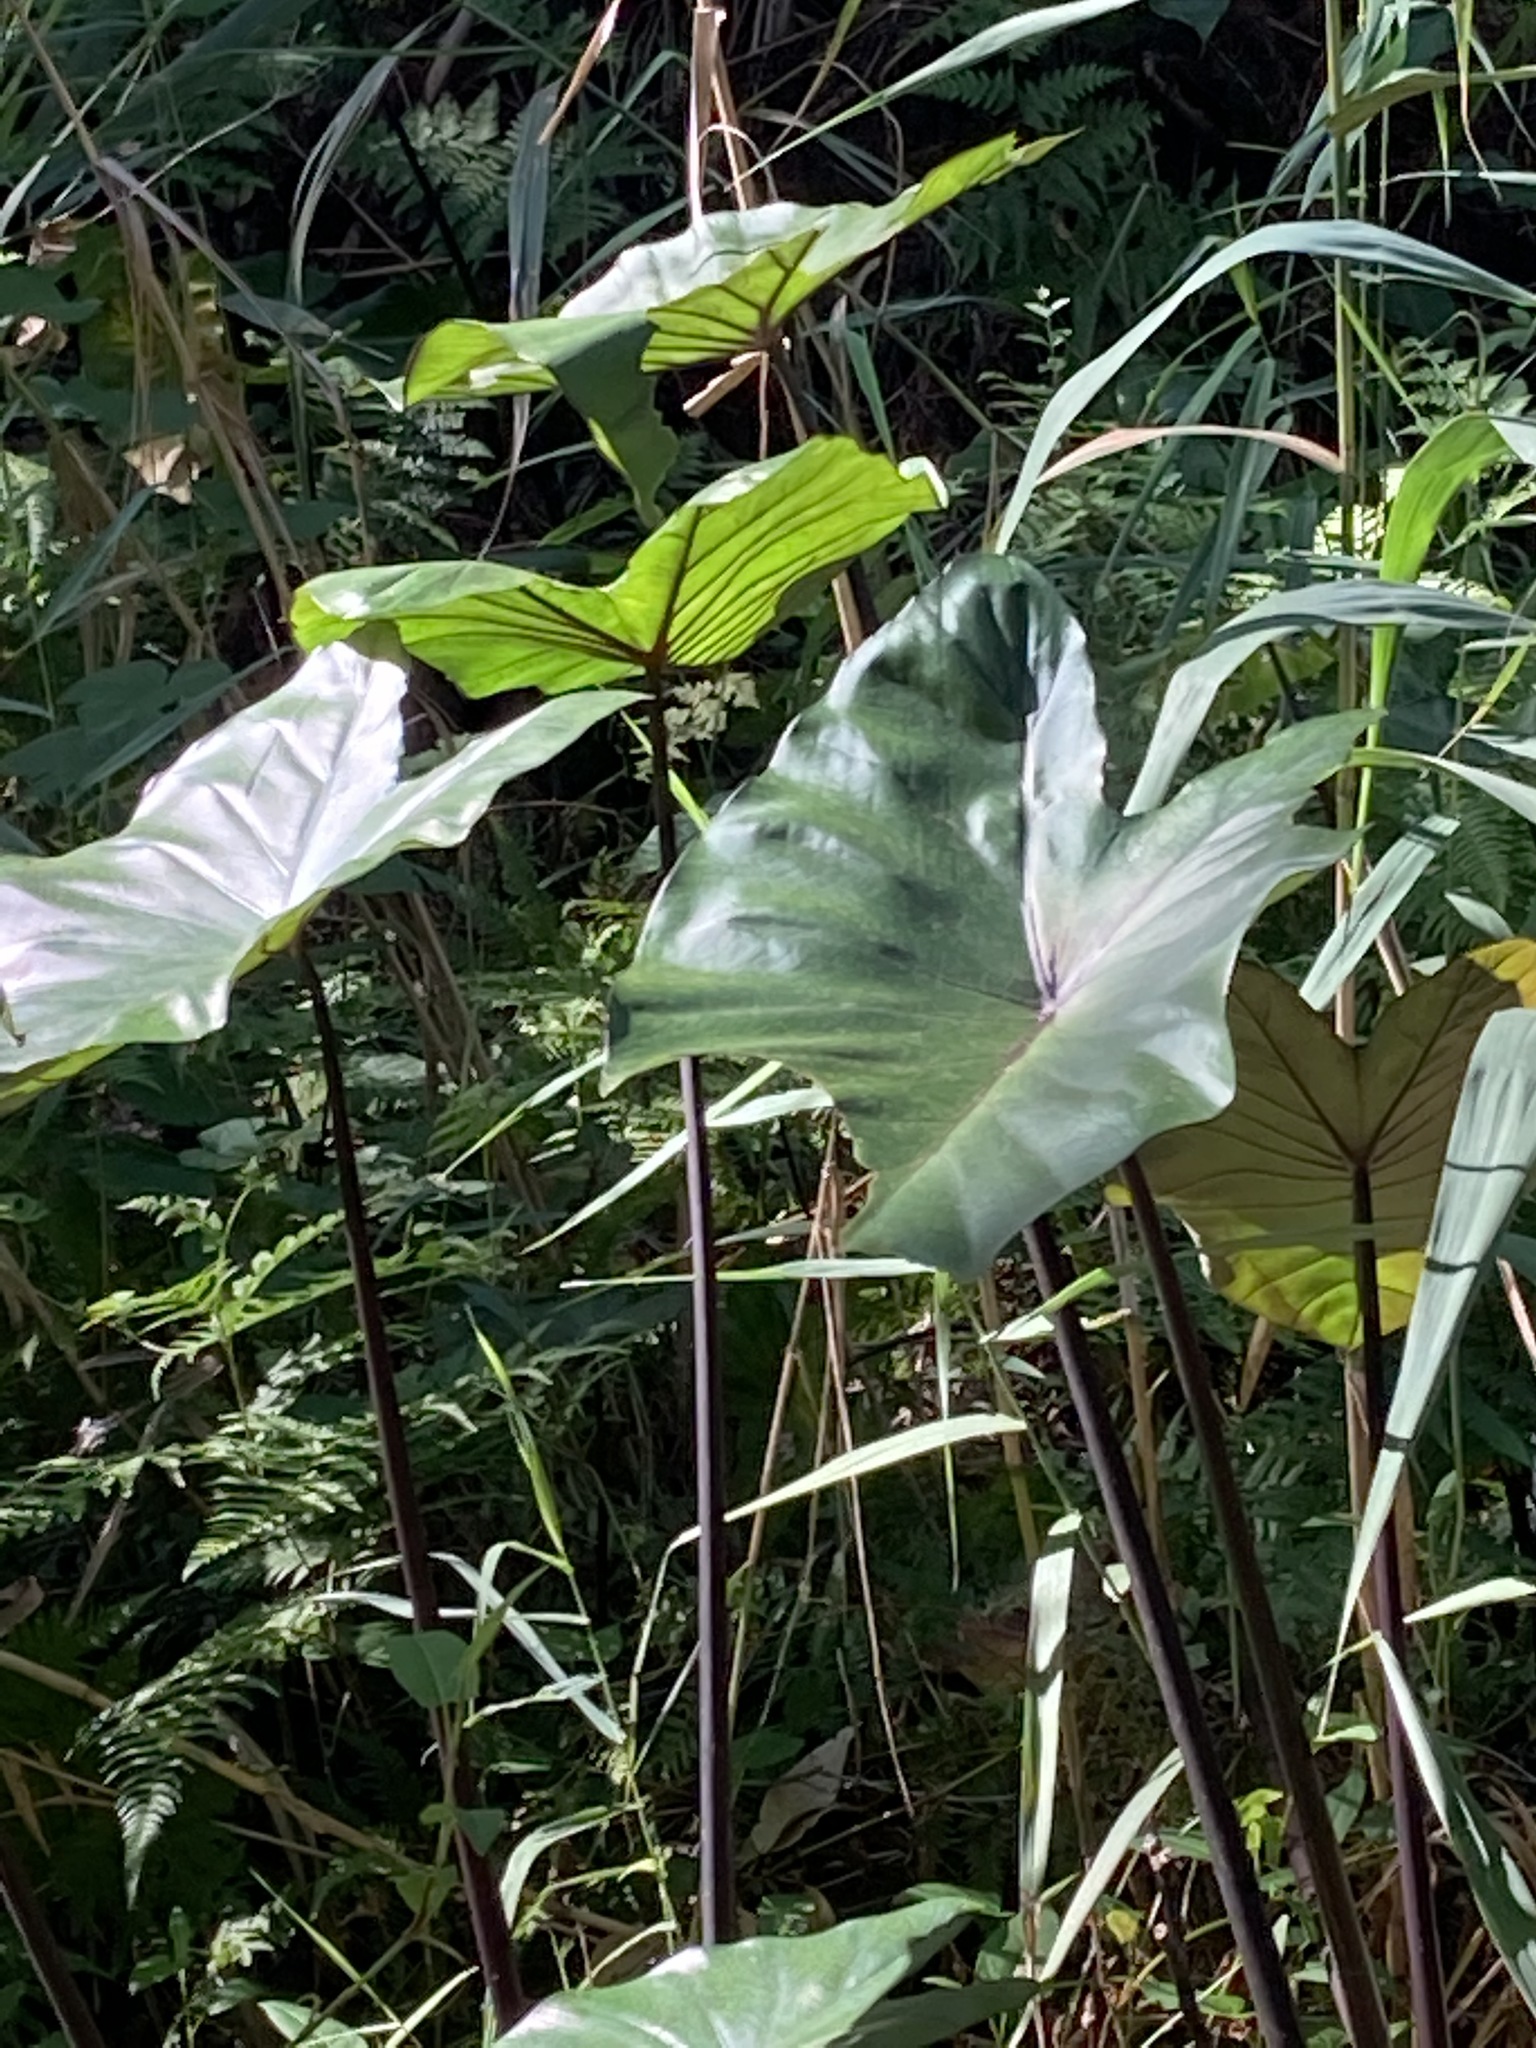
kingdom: Plantae
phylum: Tracheophyta
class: Liliopsida
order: Alismatales
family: Araceae
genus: Colocasia
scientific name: Colocasia fontanesii
